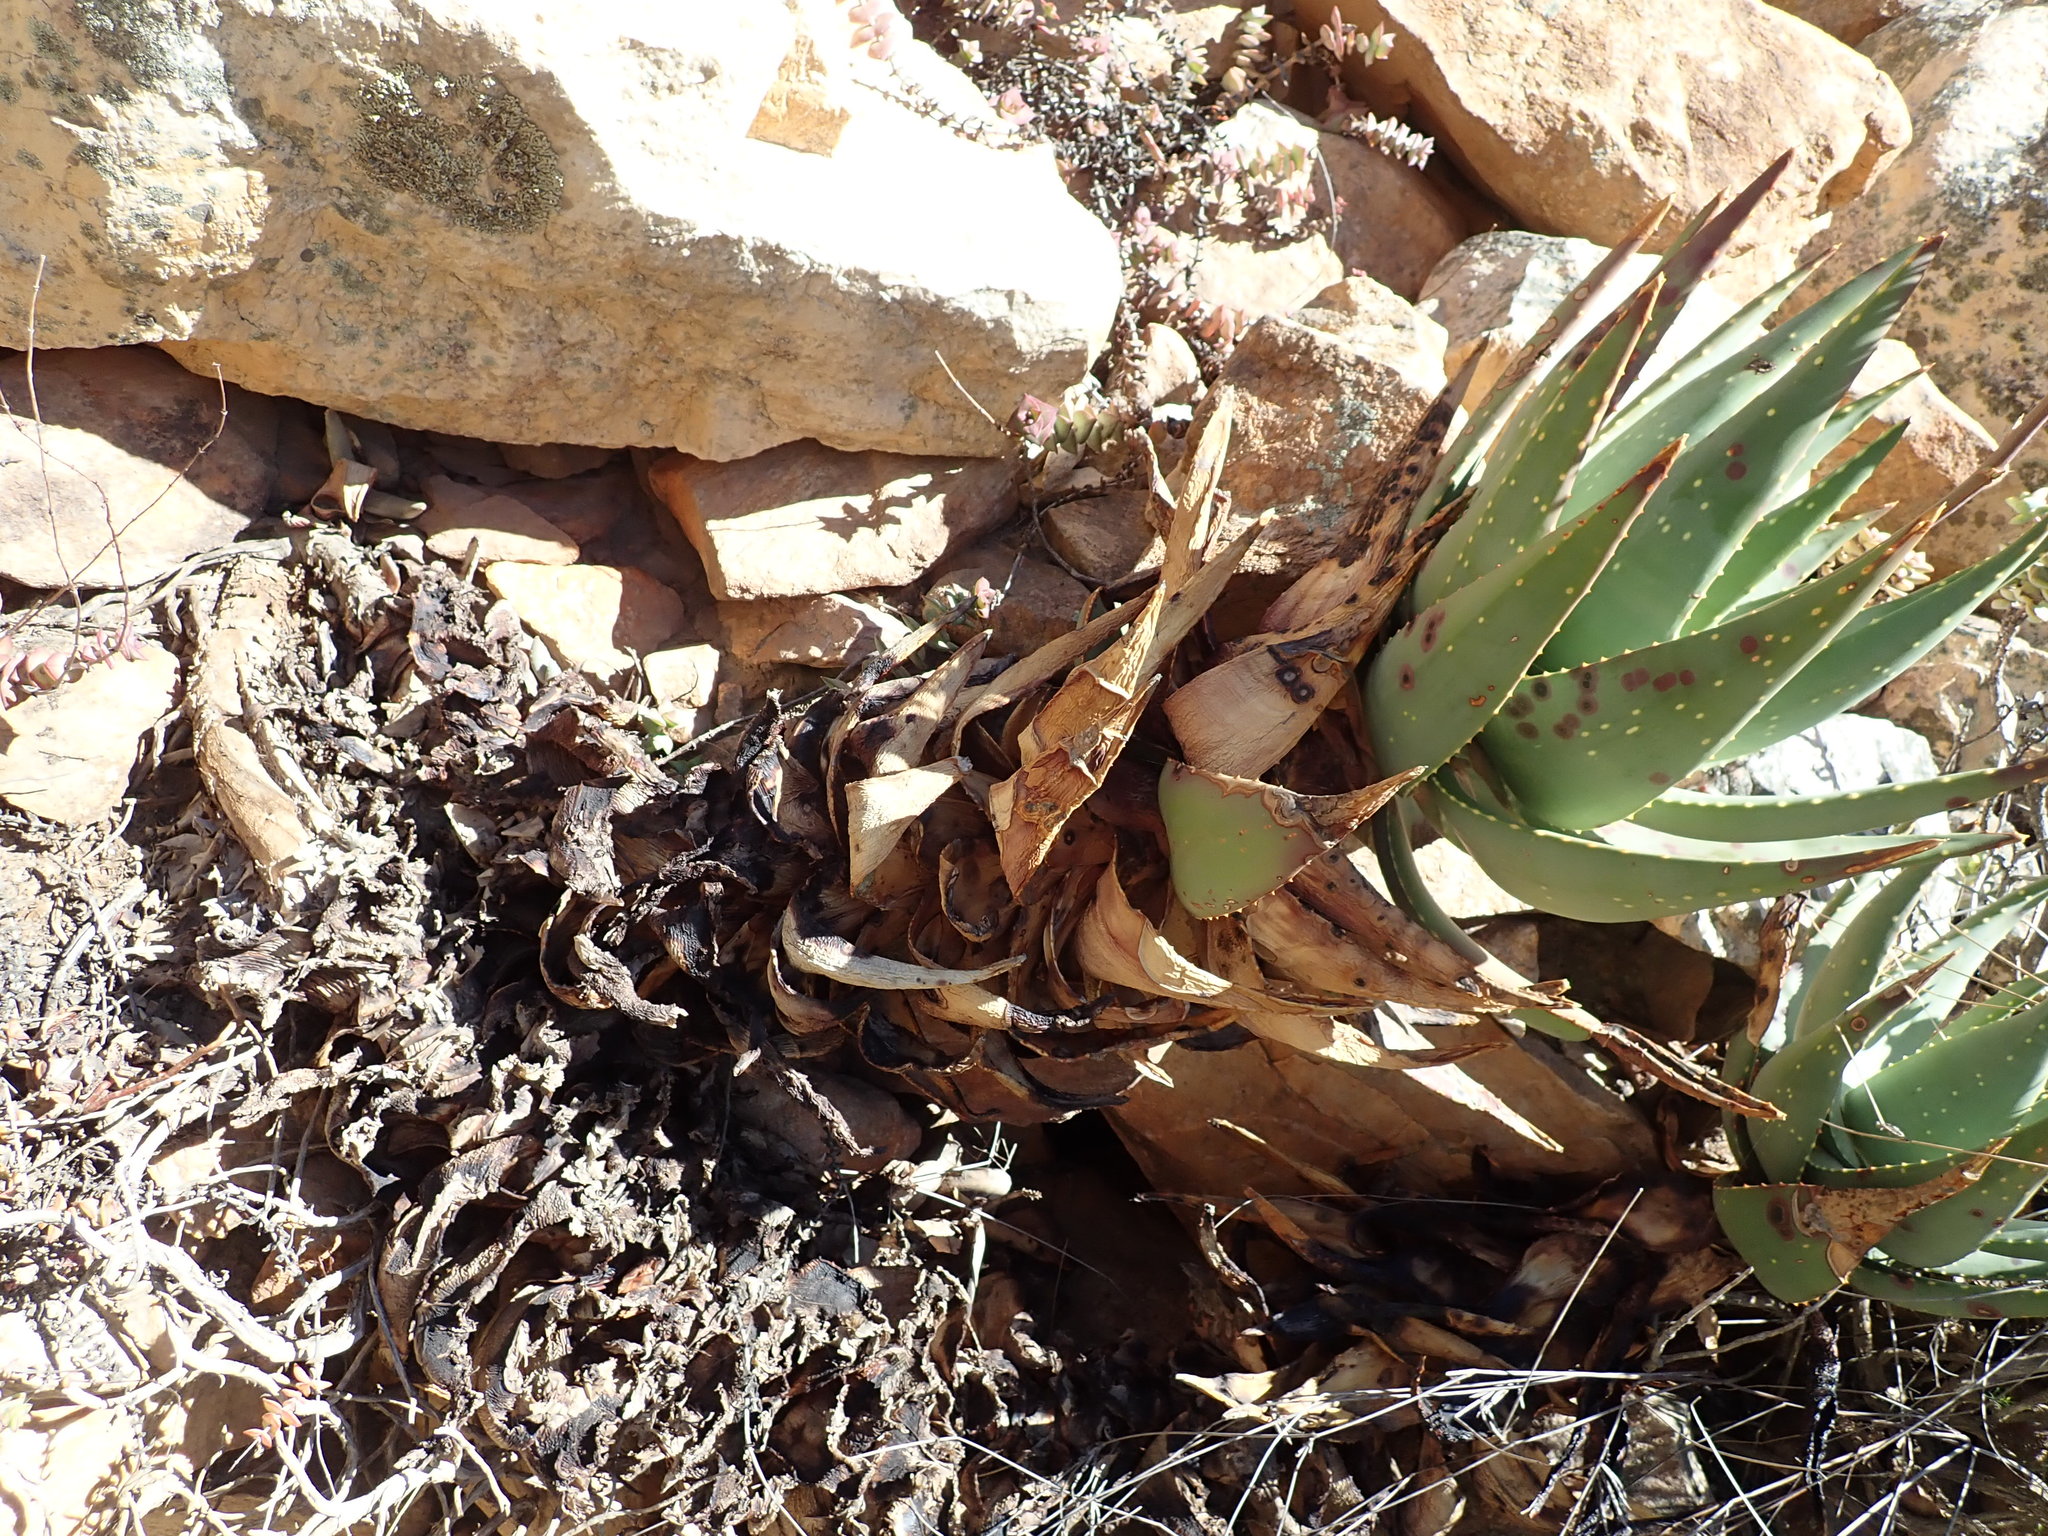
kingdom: Plantae
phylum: Tracheophyta
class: Liliopsida
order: Asparagales
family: Asphodelaceae
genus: Aloe
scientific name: Aloe comptonii
